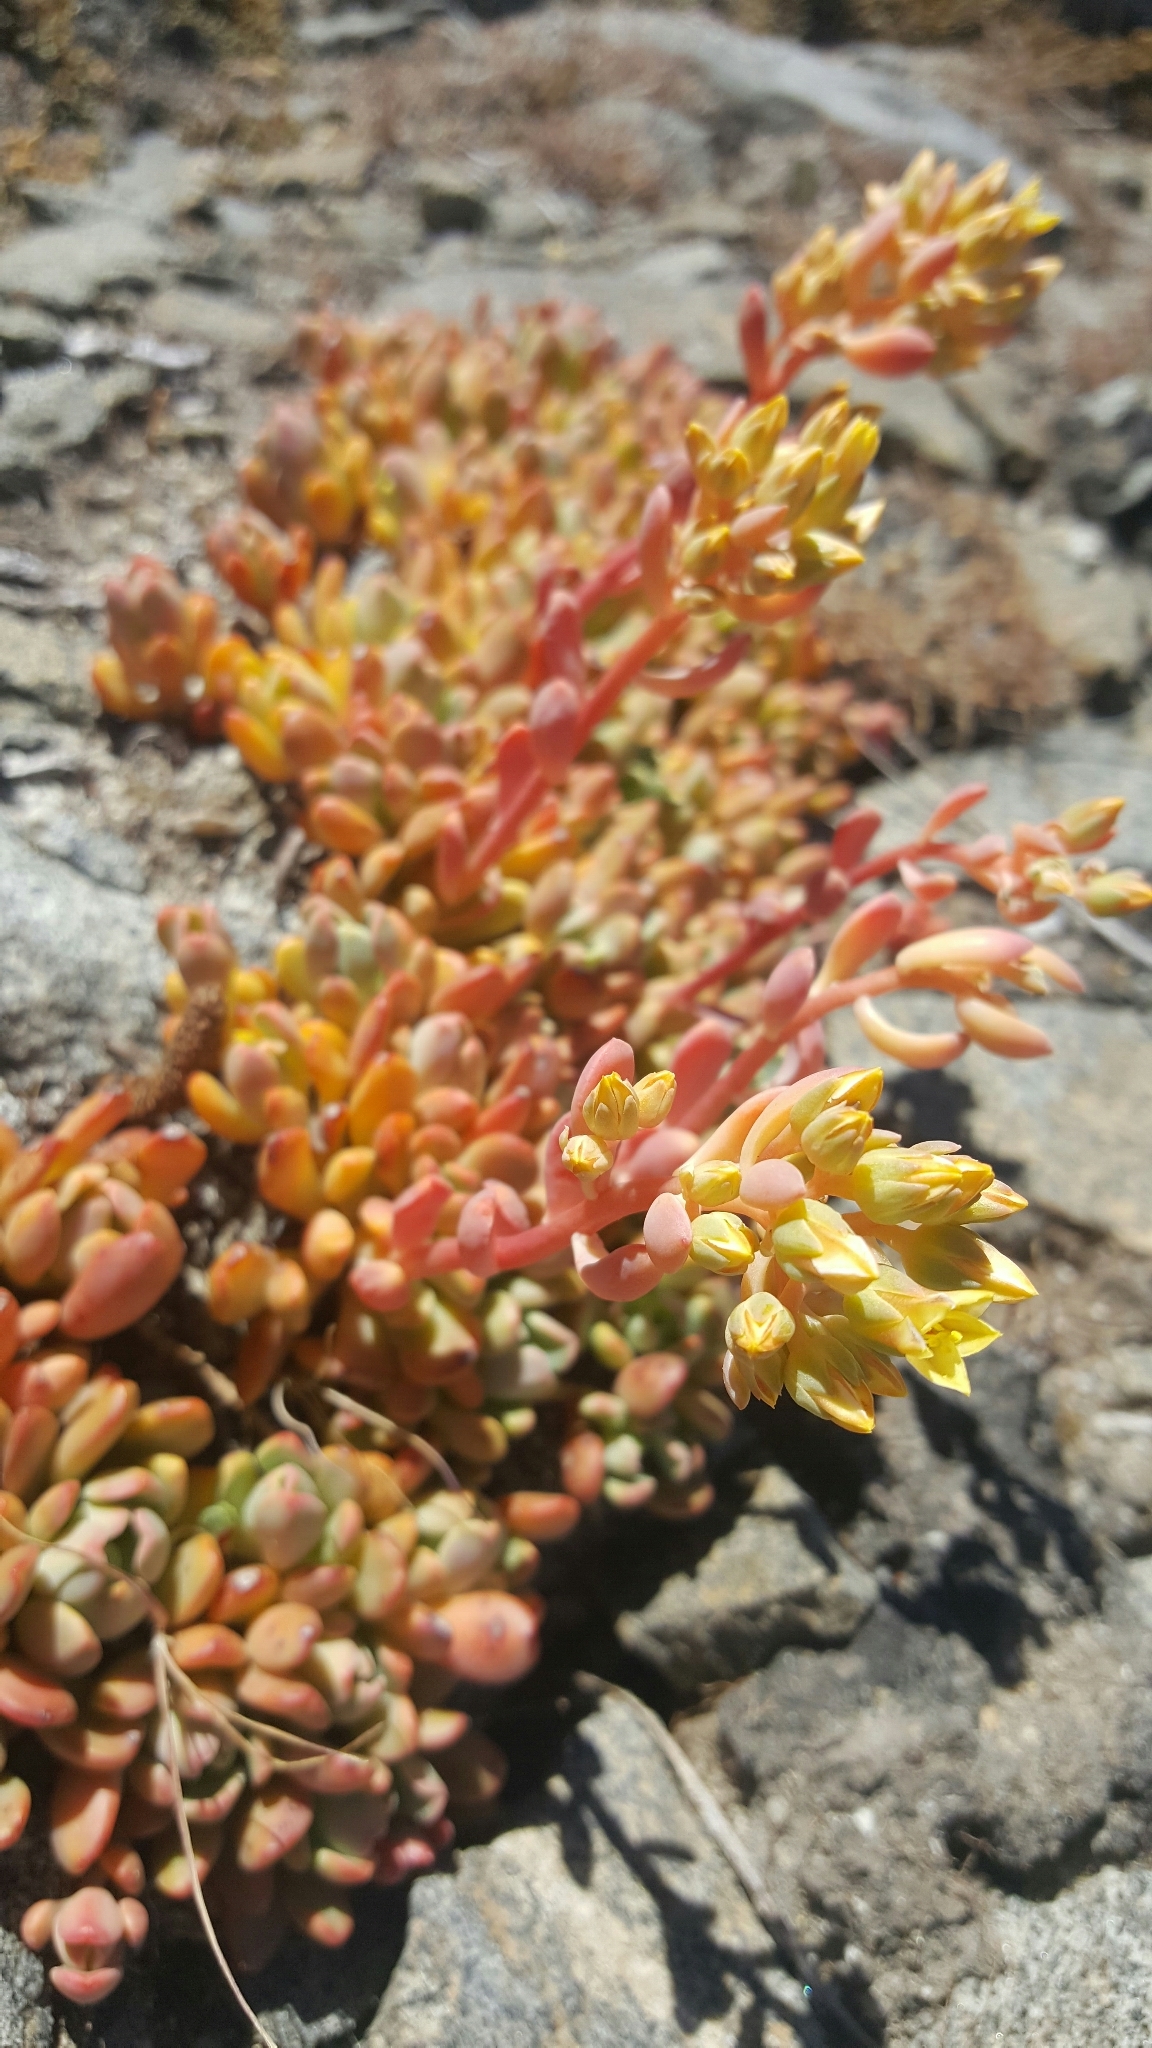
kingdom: Plantae
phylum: Tracheophyta
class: Magnoliopsida
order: Saxifragales
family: Crassulaceae
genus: Sedum
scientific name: Sedum obtusatum
